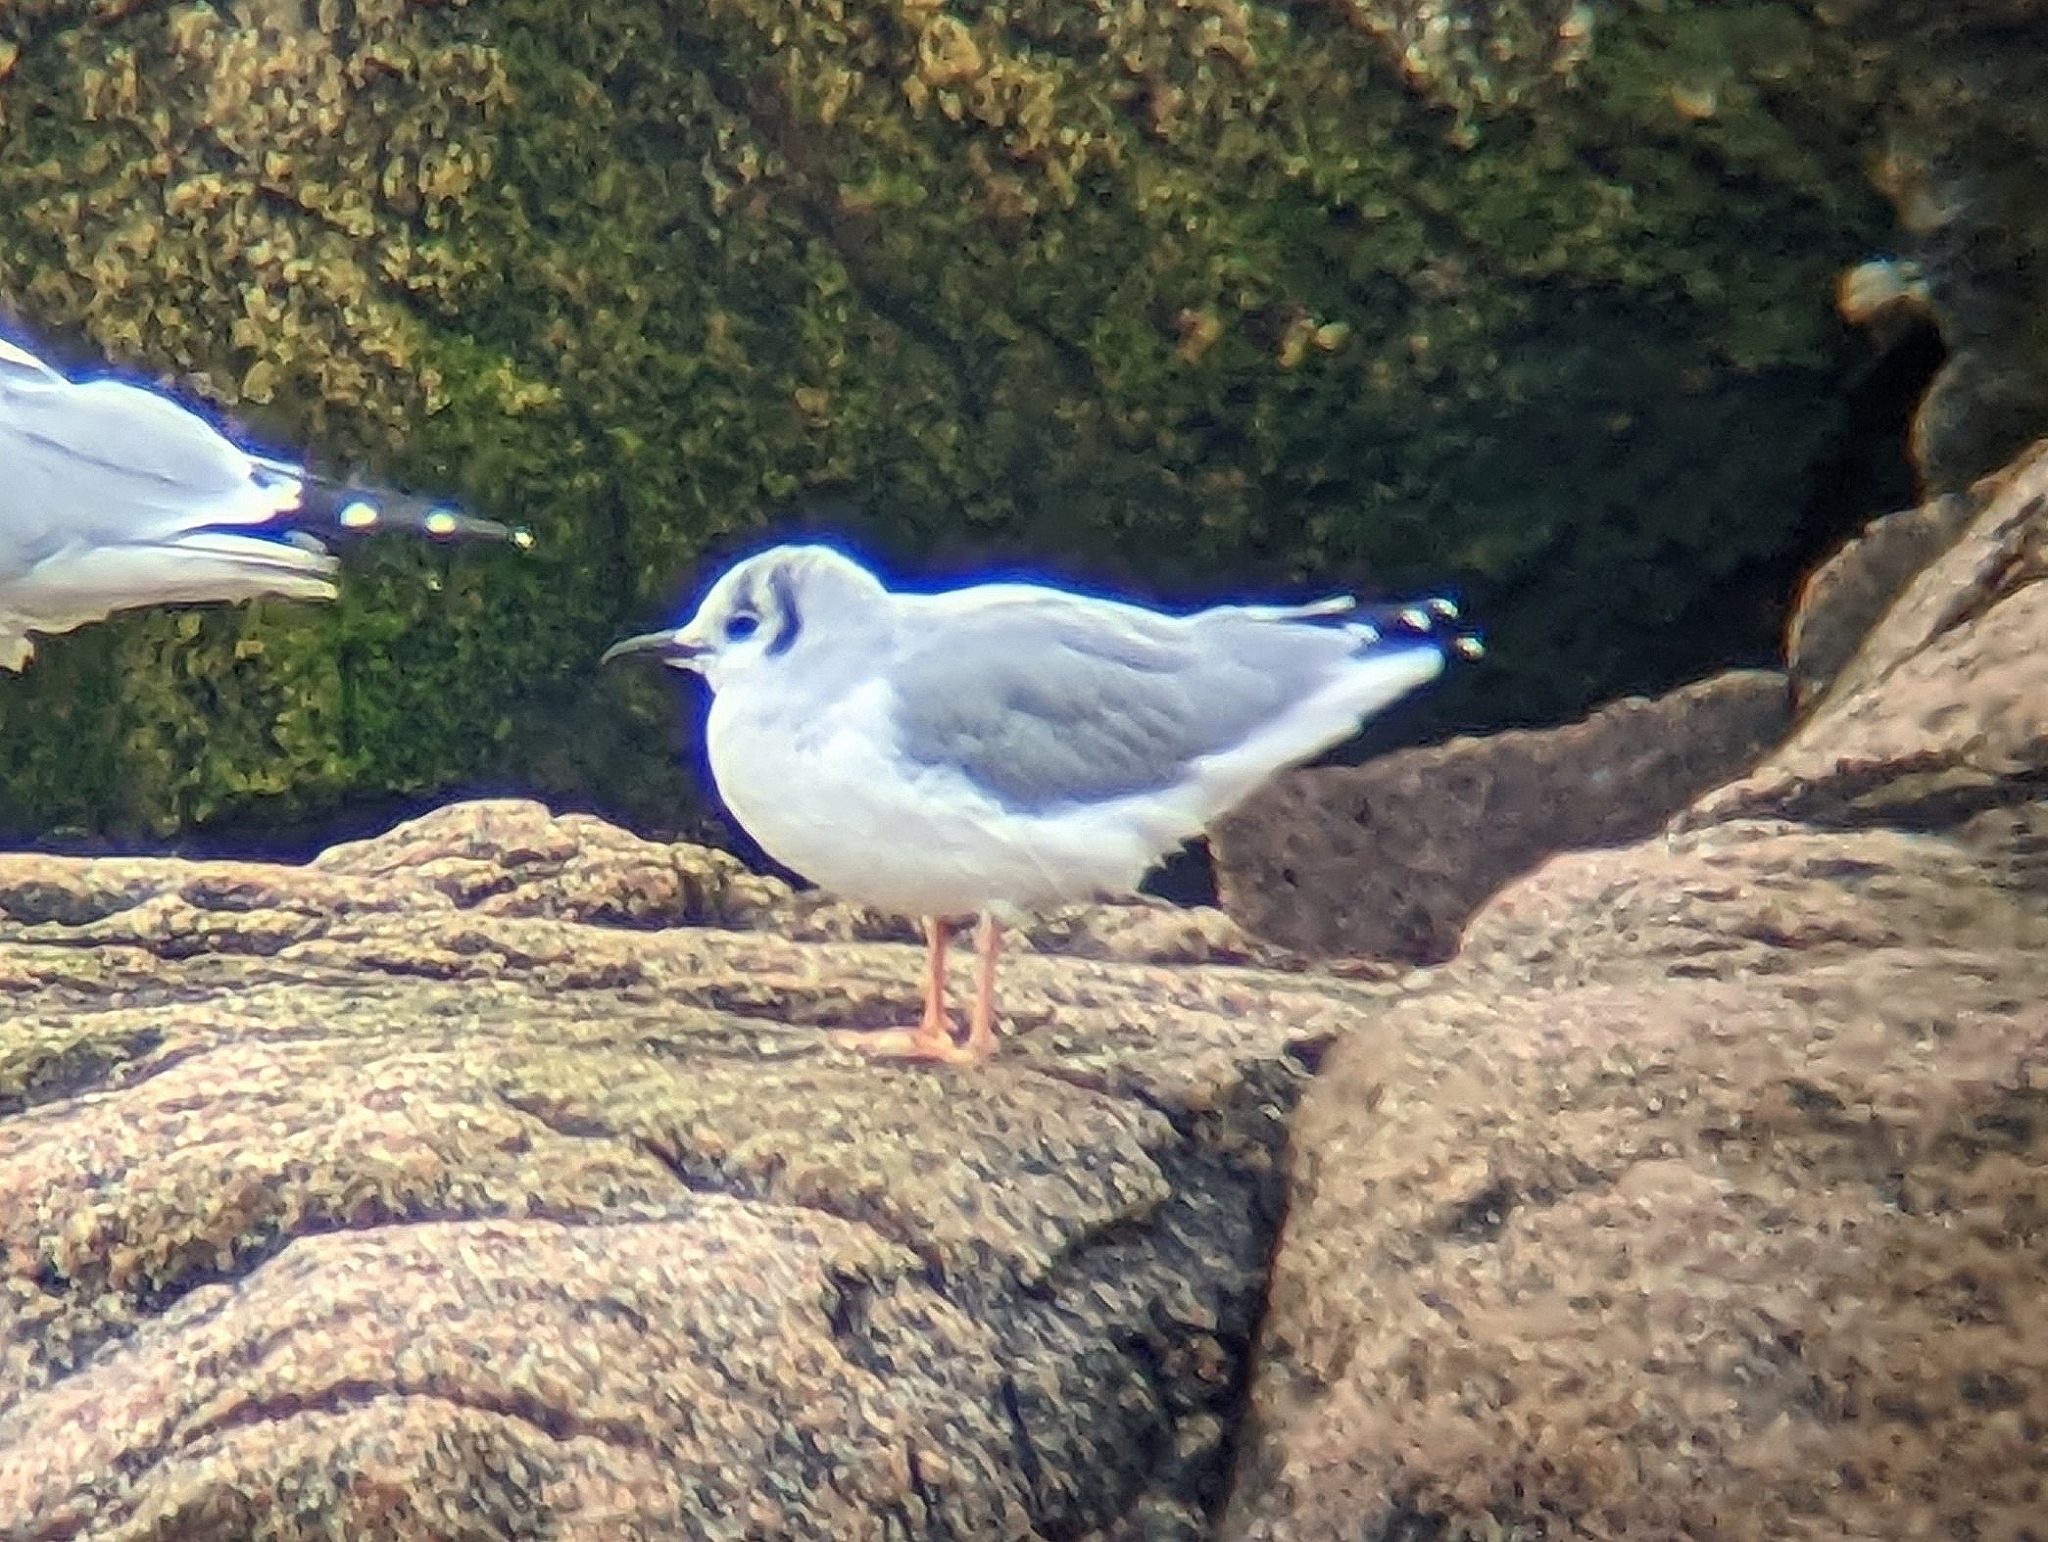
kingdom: Animalia
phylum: Chordata
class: Aves
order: Charadriiformes
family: Laridae
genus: Chroicocephalus
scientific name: Chroicocephalus philadelphia
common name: Bonaparte's gull
